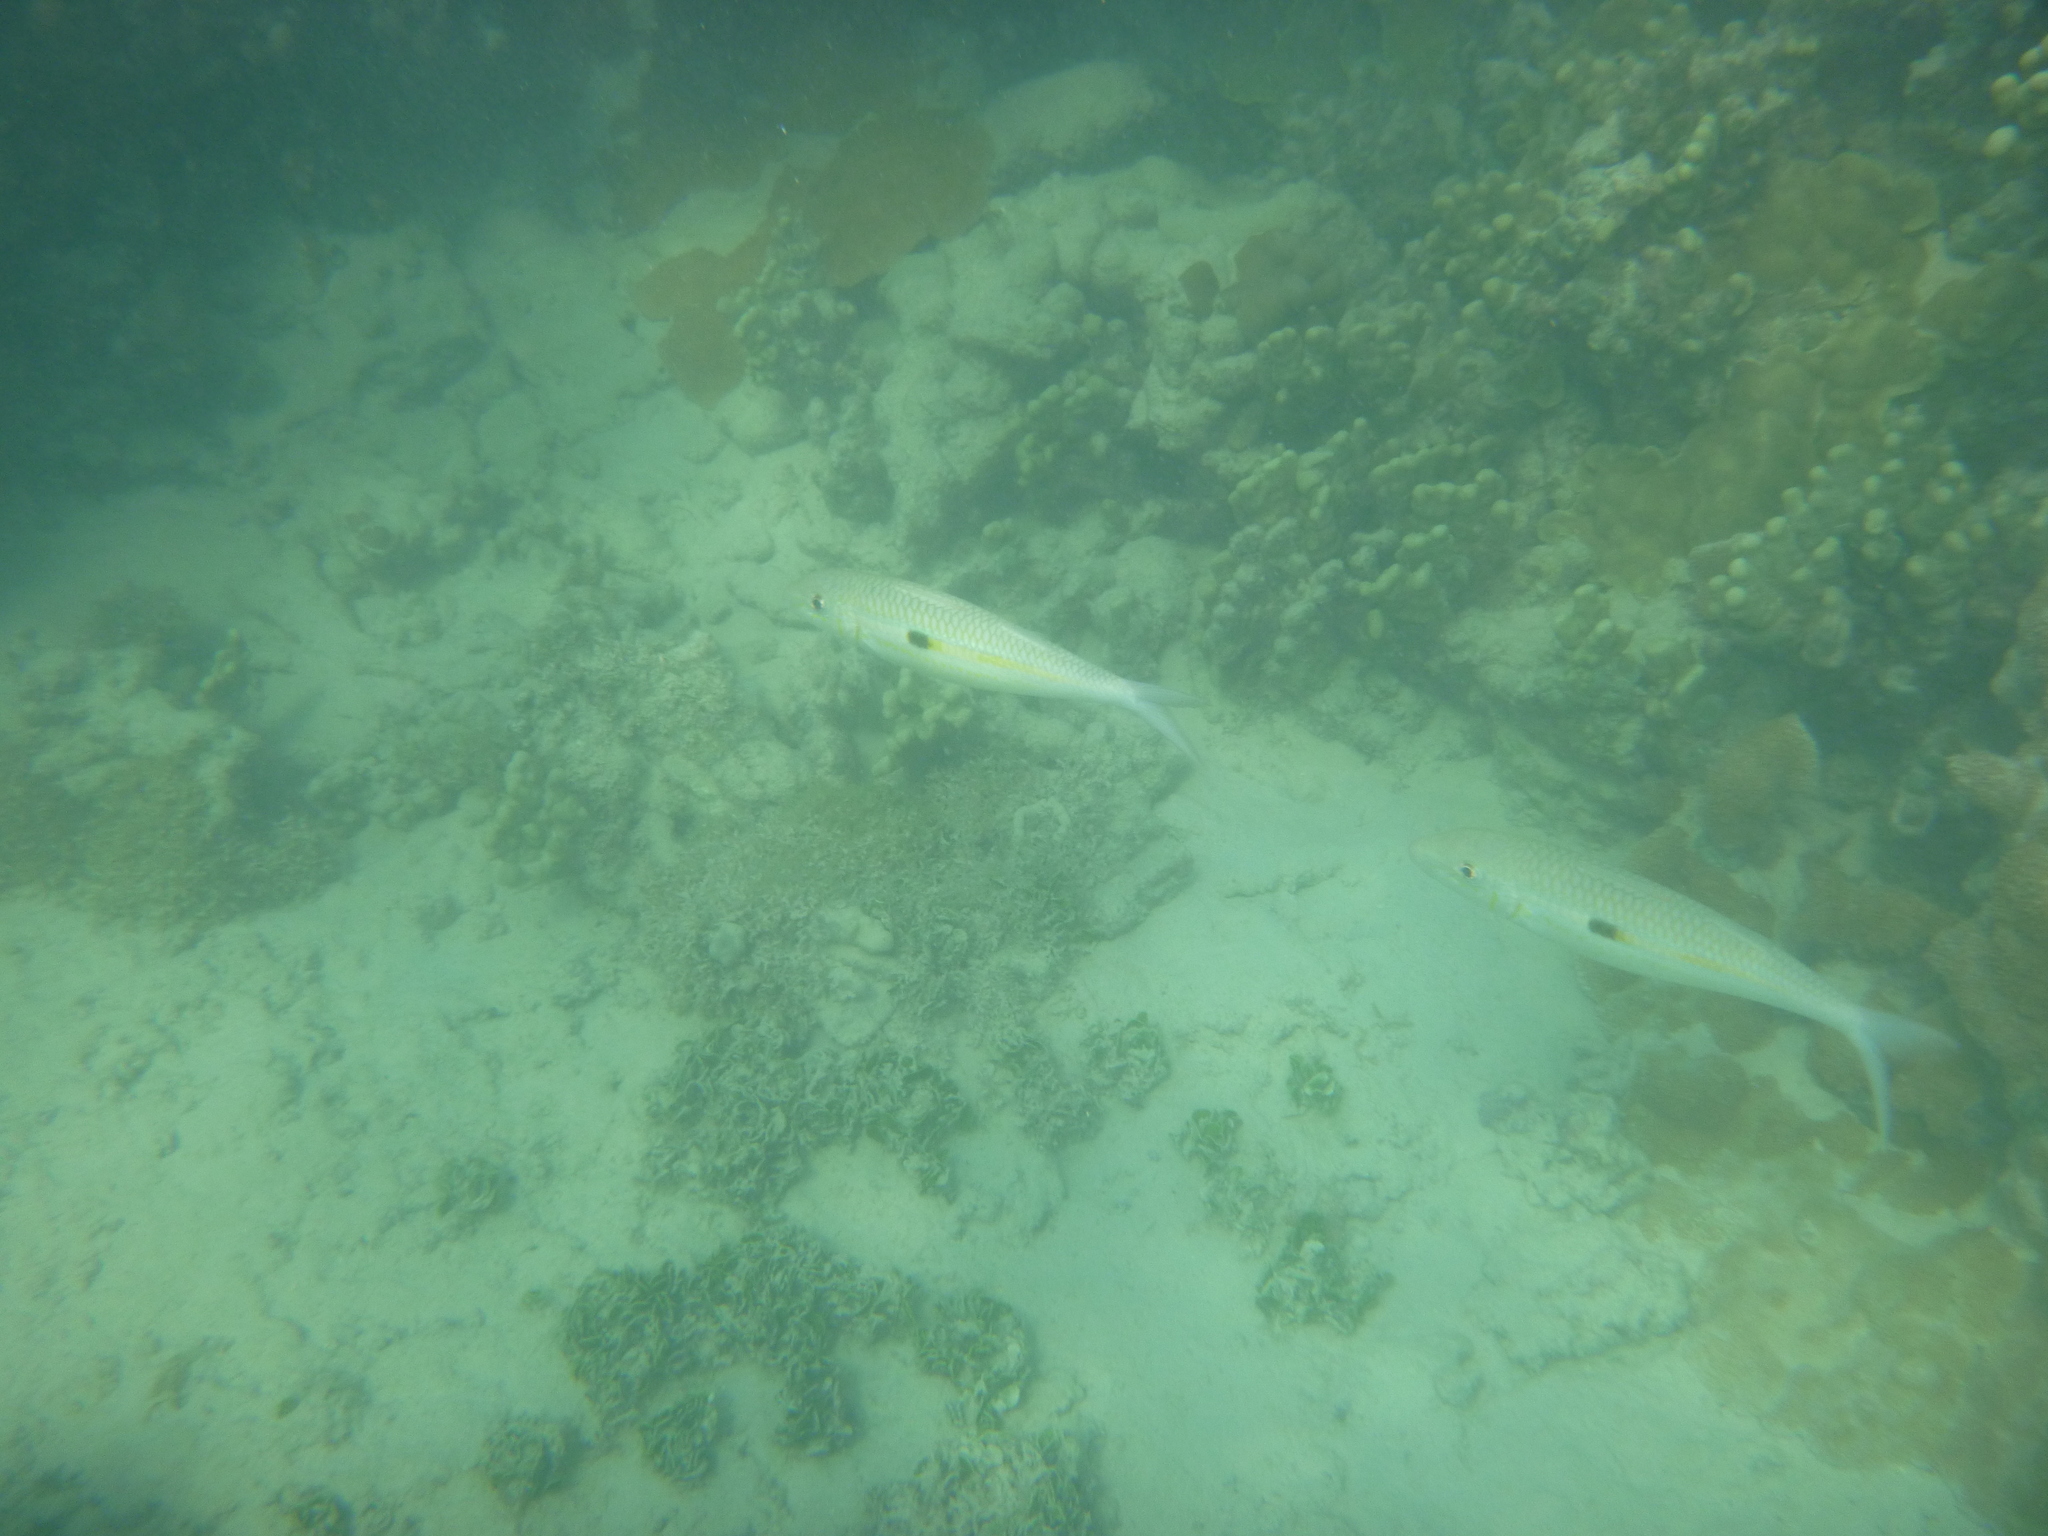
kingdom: Animalia
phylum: Chordata
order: Perciformes
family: Mullidae
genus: Mulloidichthys
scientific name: Mulloidichthys flavolineatus
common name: Yellowstripe goatfish
